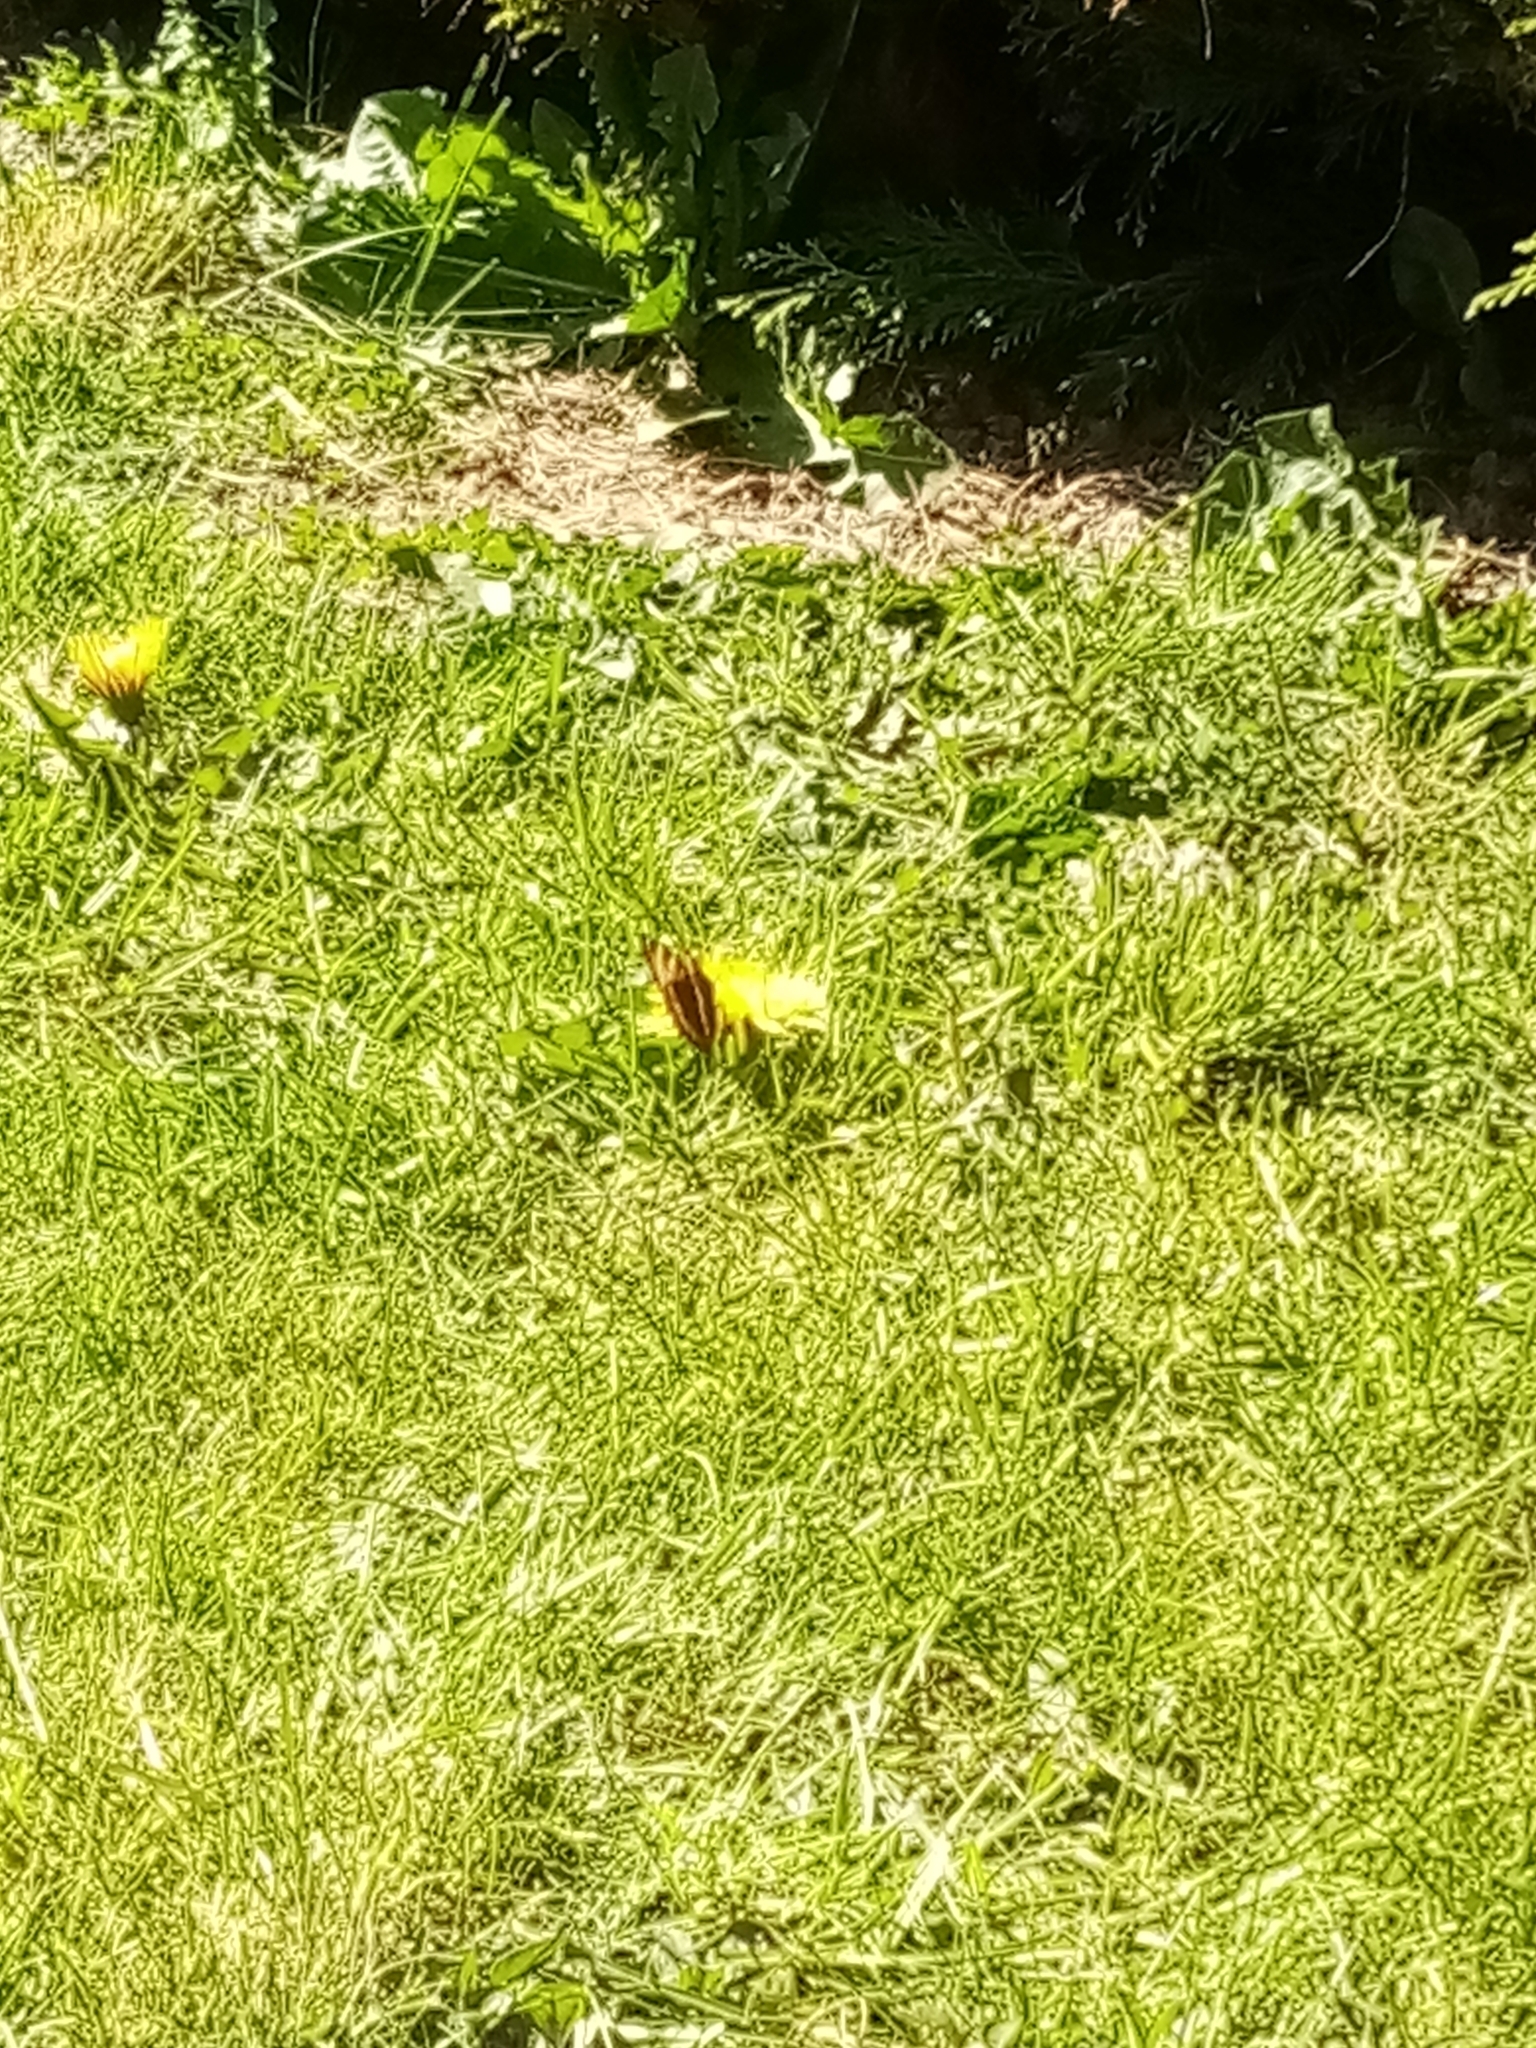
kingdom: Animalia
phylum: Arthropoda
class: Insecta
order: Lepidoptera
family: Nymphalidae
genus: Aglais
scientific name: Aglais urticae
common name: Small tortoiseshell
